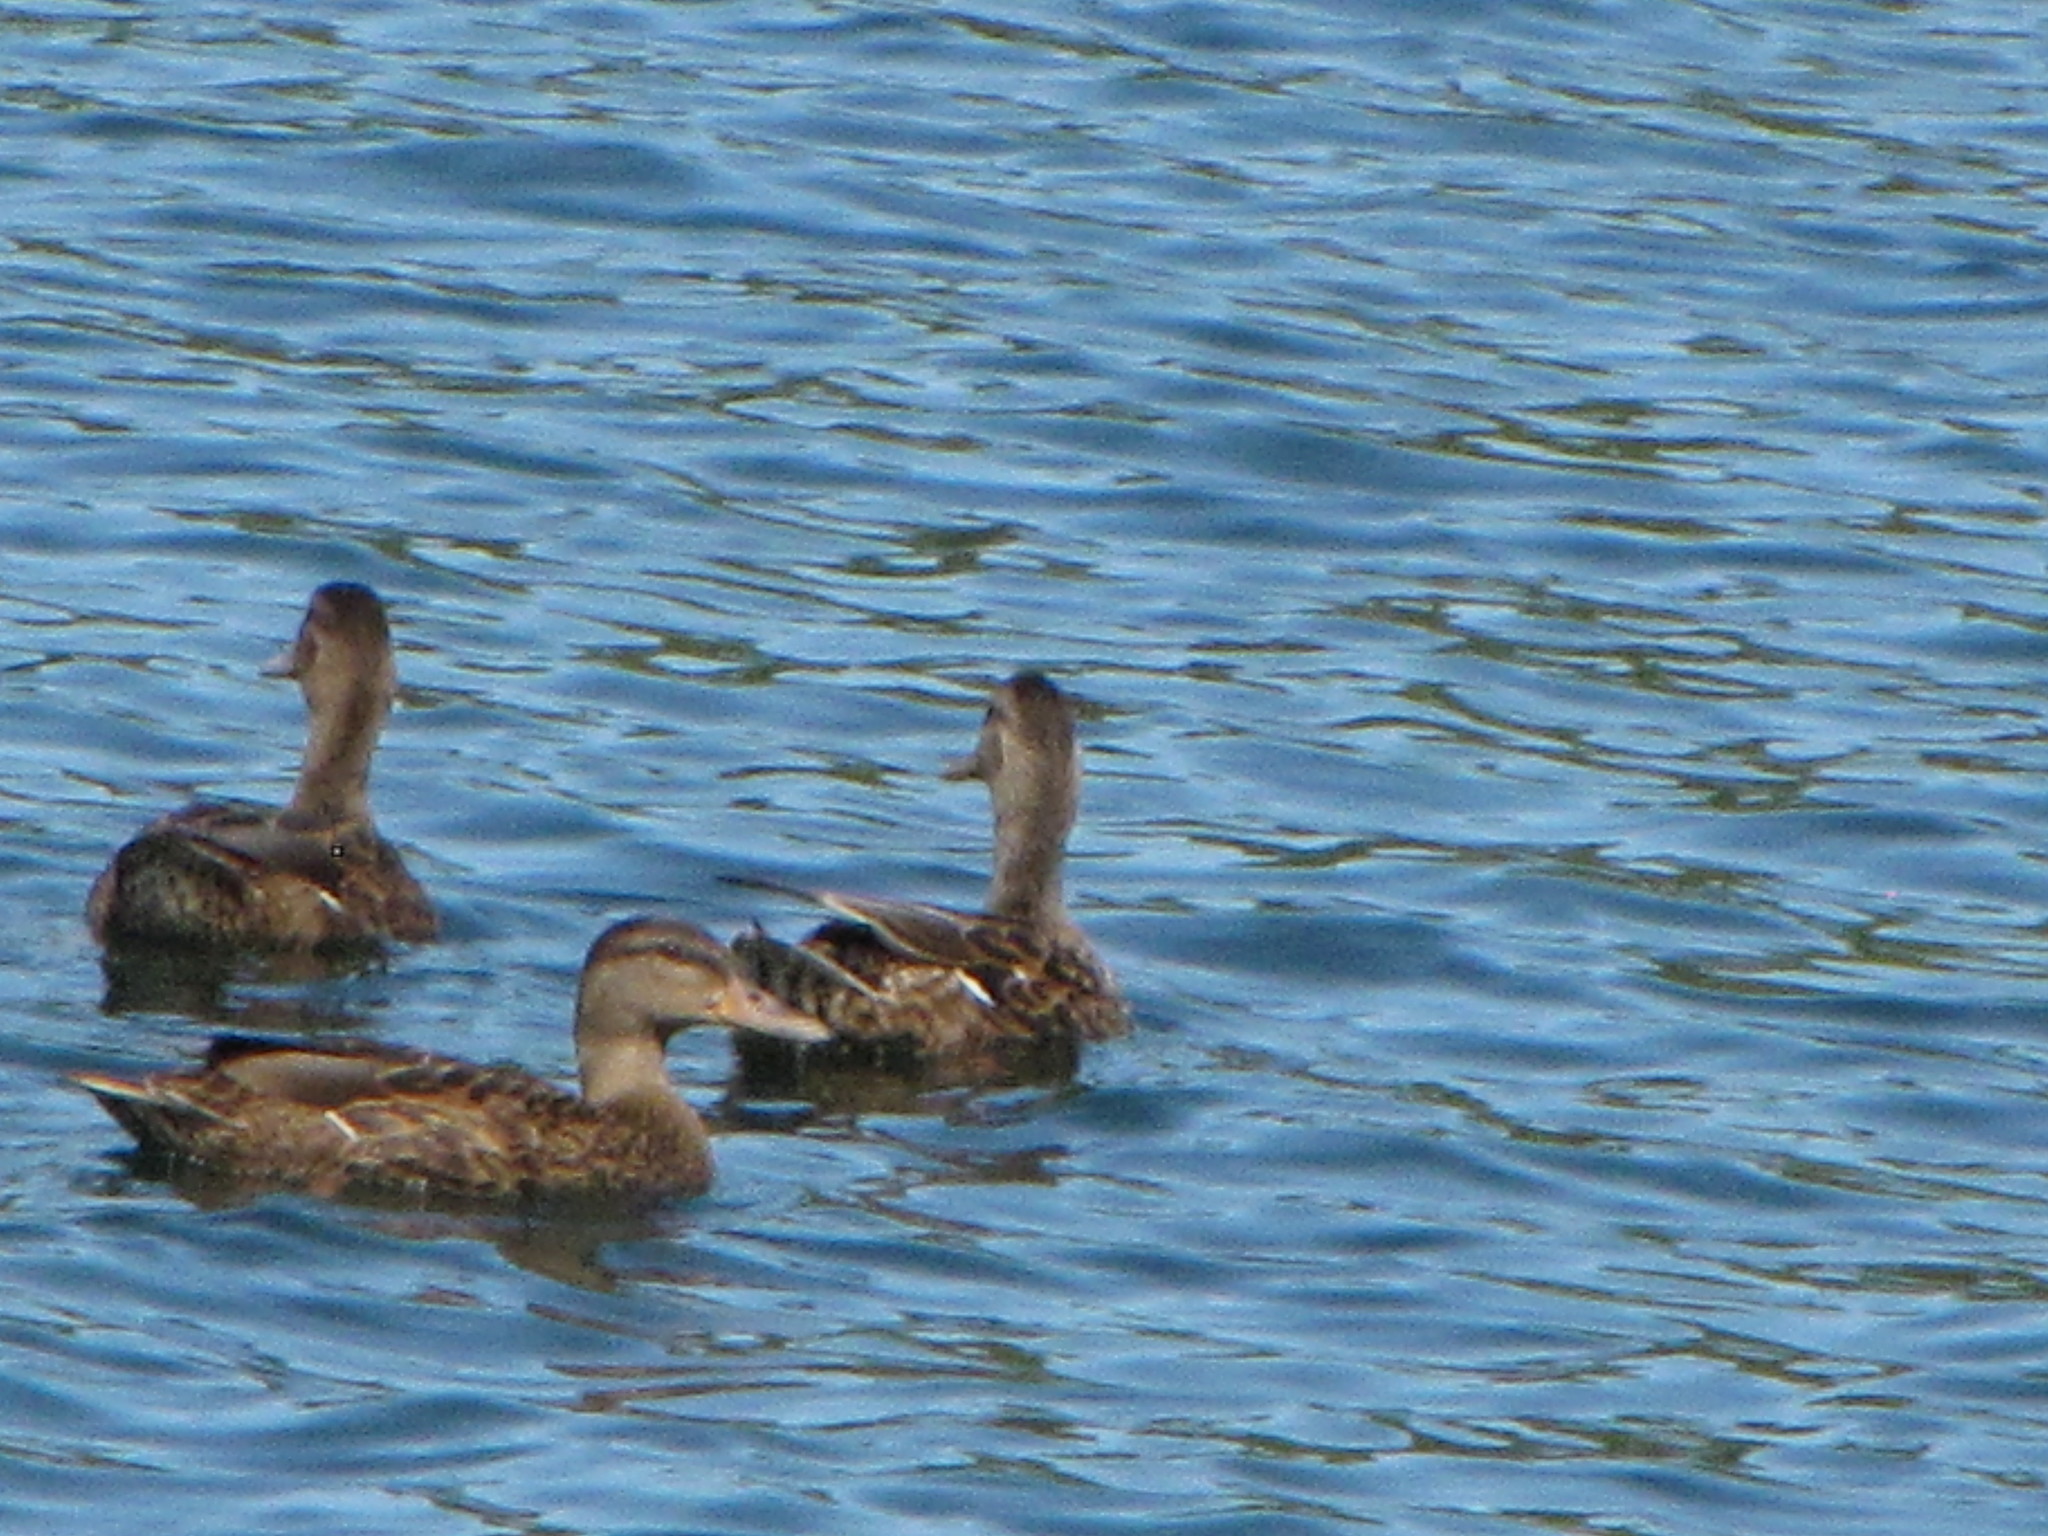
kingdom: Animalia
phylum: Chordata
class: Aves
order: Anseriformes
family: Anatidae
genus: Anas
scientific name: Anas platyrhynchos
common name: Mallard
